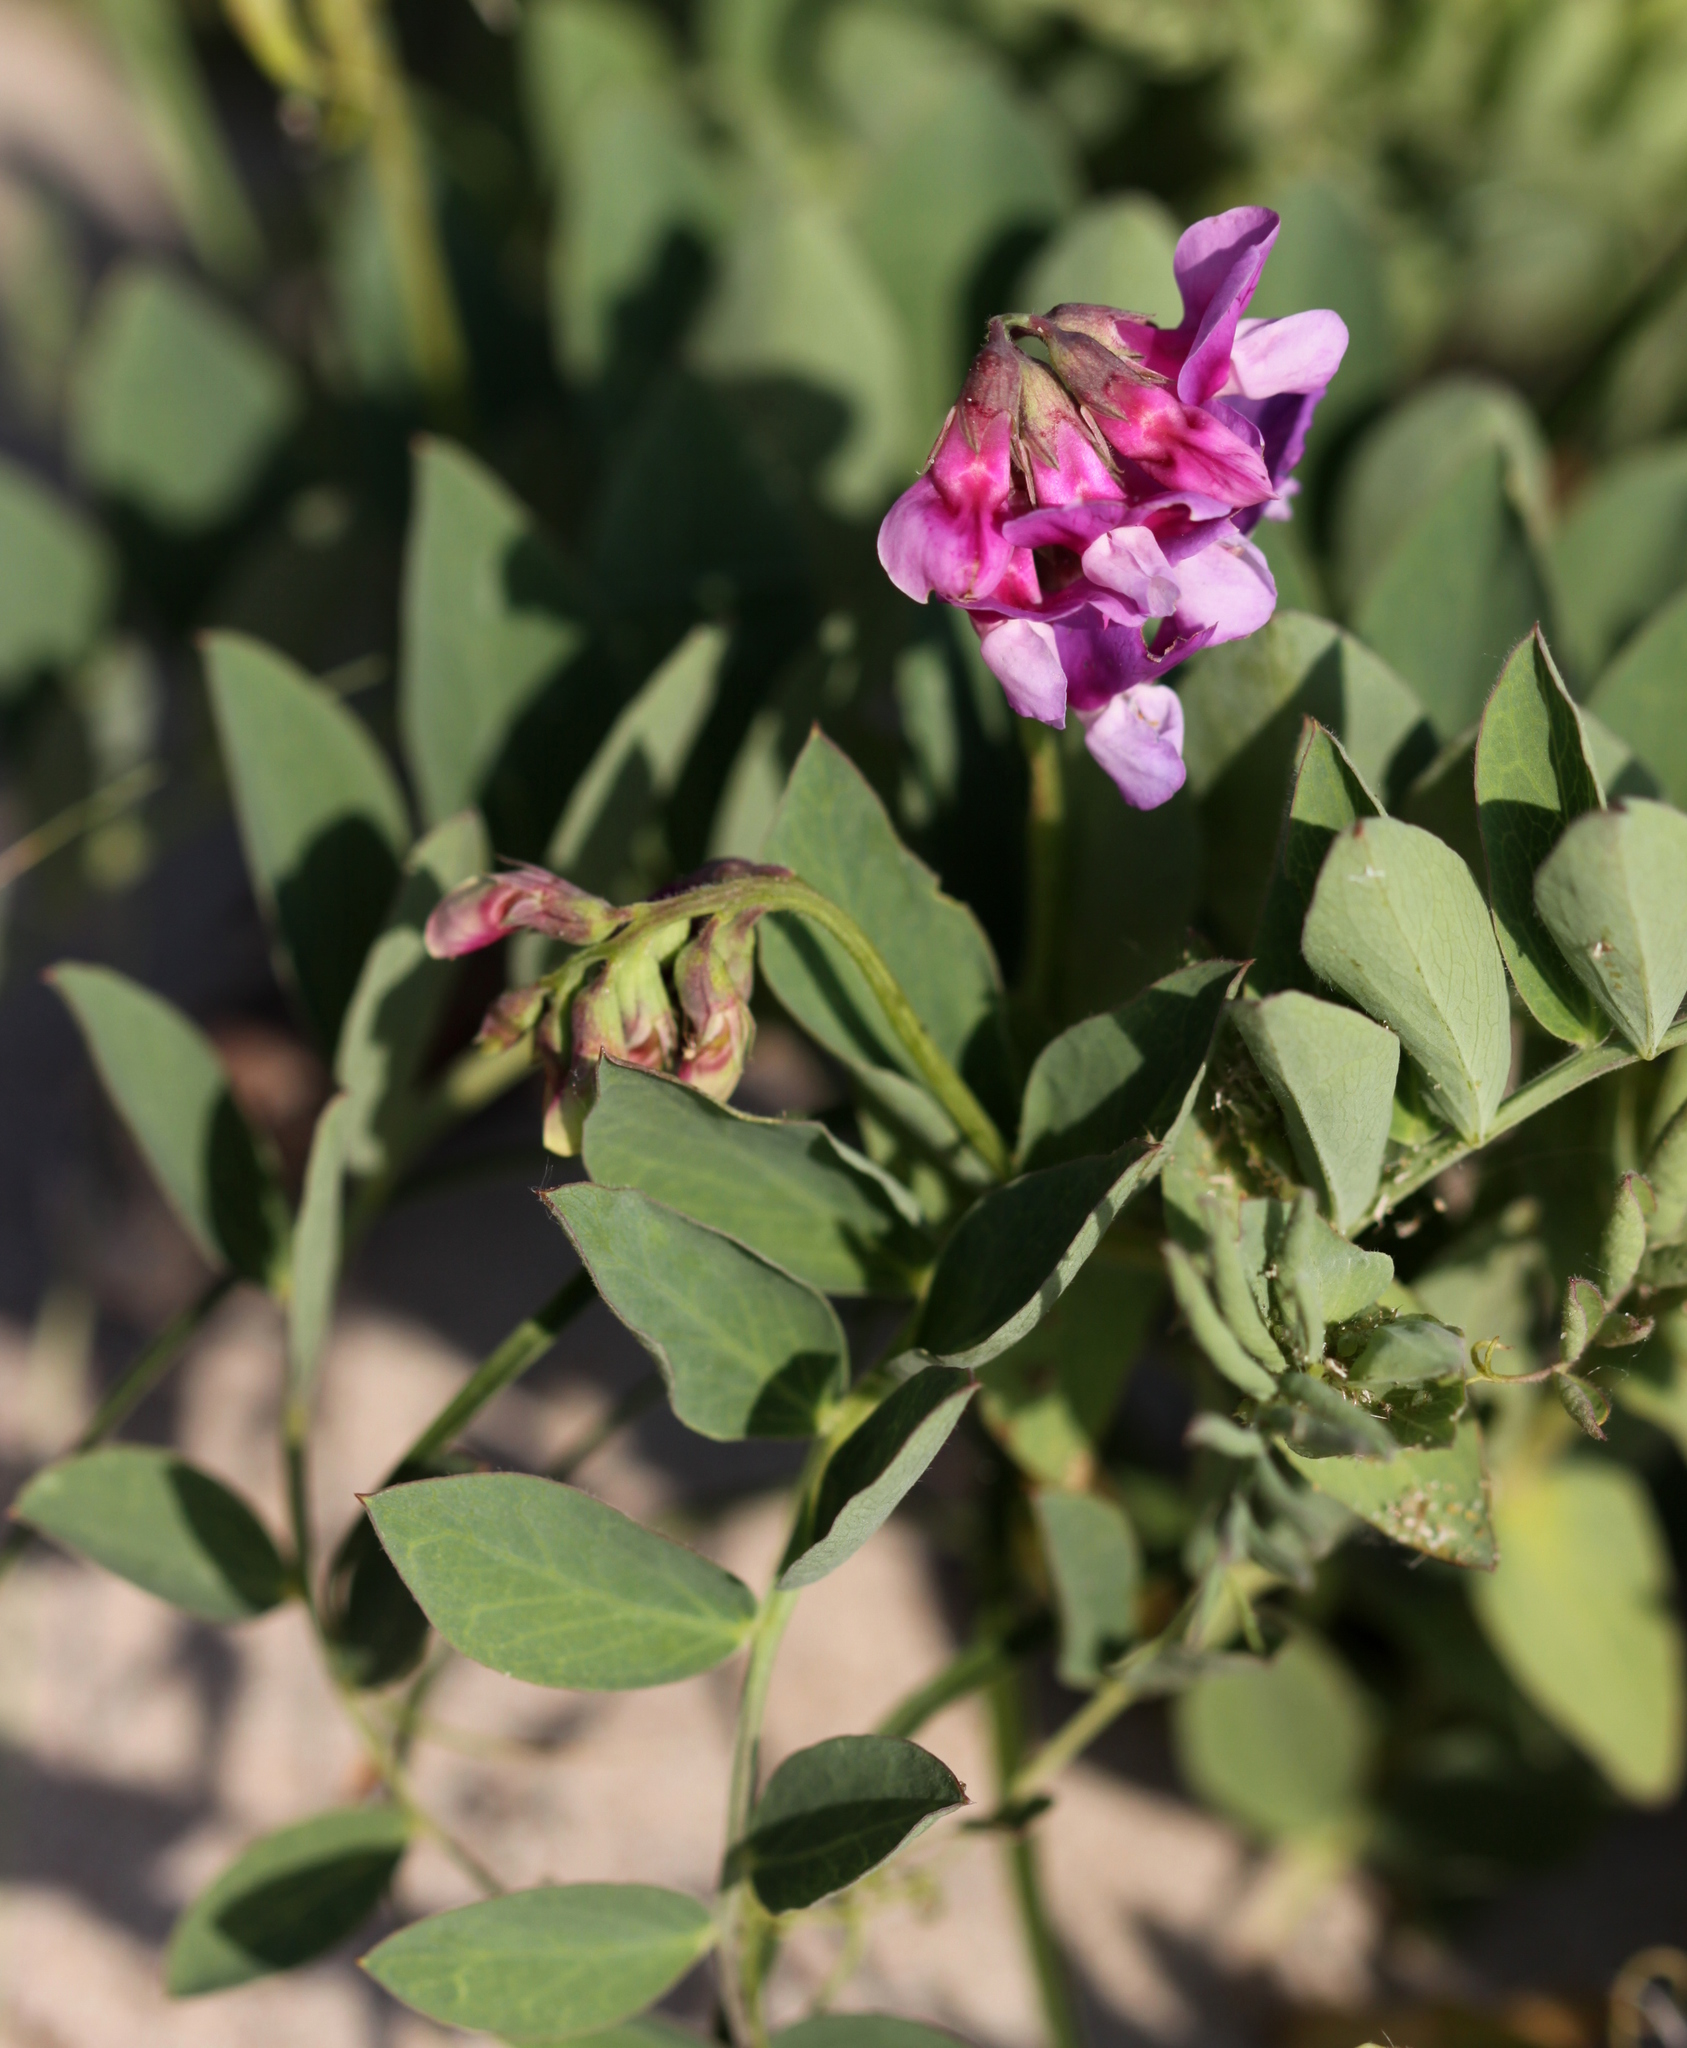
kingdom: Plantae
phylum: Tracheophyta
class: Magnoliopsida
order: Fabales
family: Fabaceae
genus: Lathyrus
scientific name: Lathyrus japonicus
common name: Sea pea
